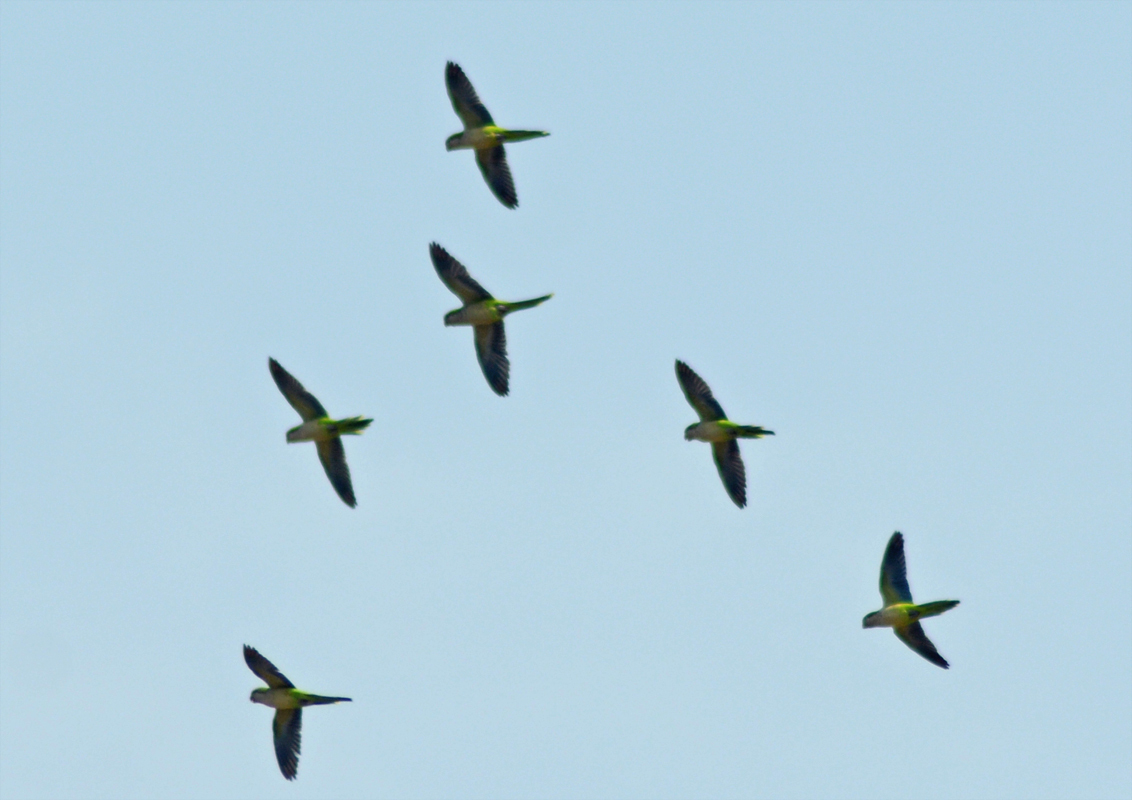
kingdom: Animalia
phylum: Chordata
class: Aves
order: Psittaciformes
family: Psittacidae
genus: Myiopsitta
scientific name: Myiopsitta monachus
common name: Monk parakeet
